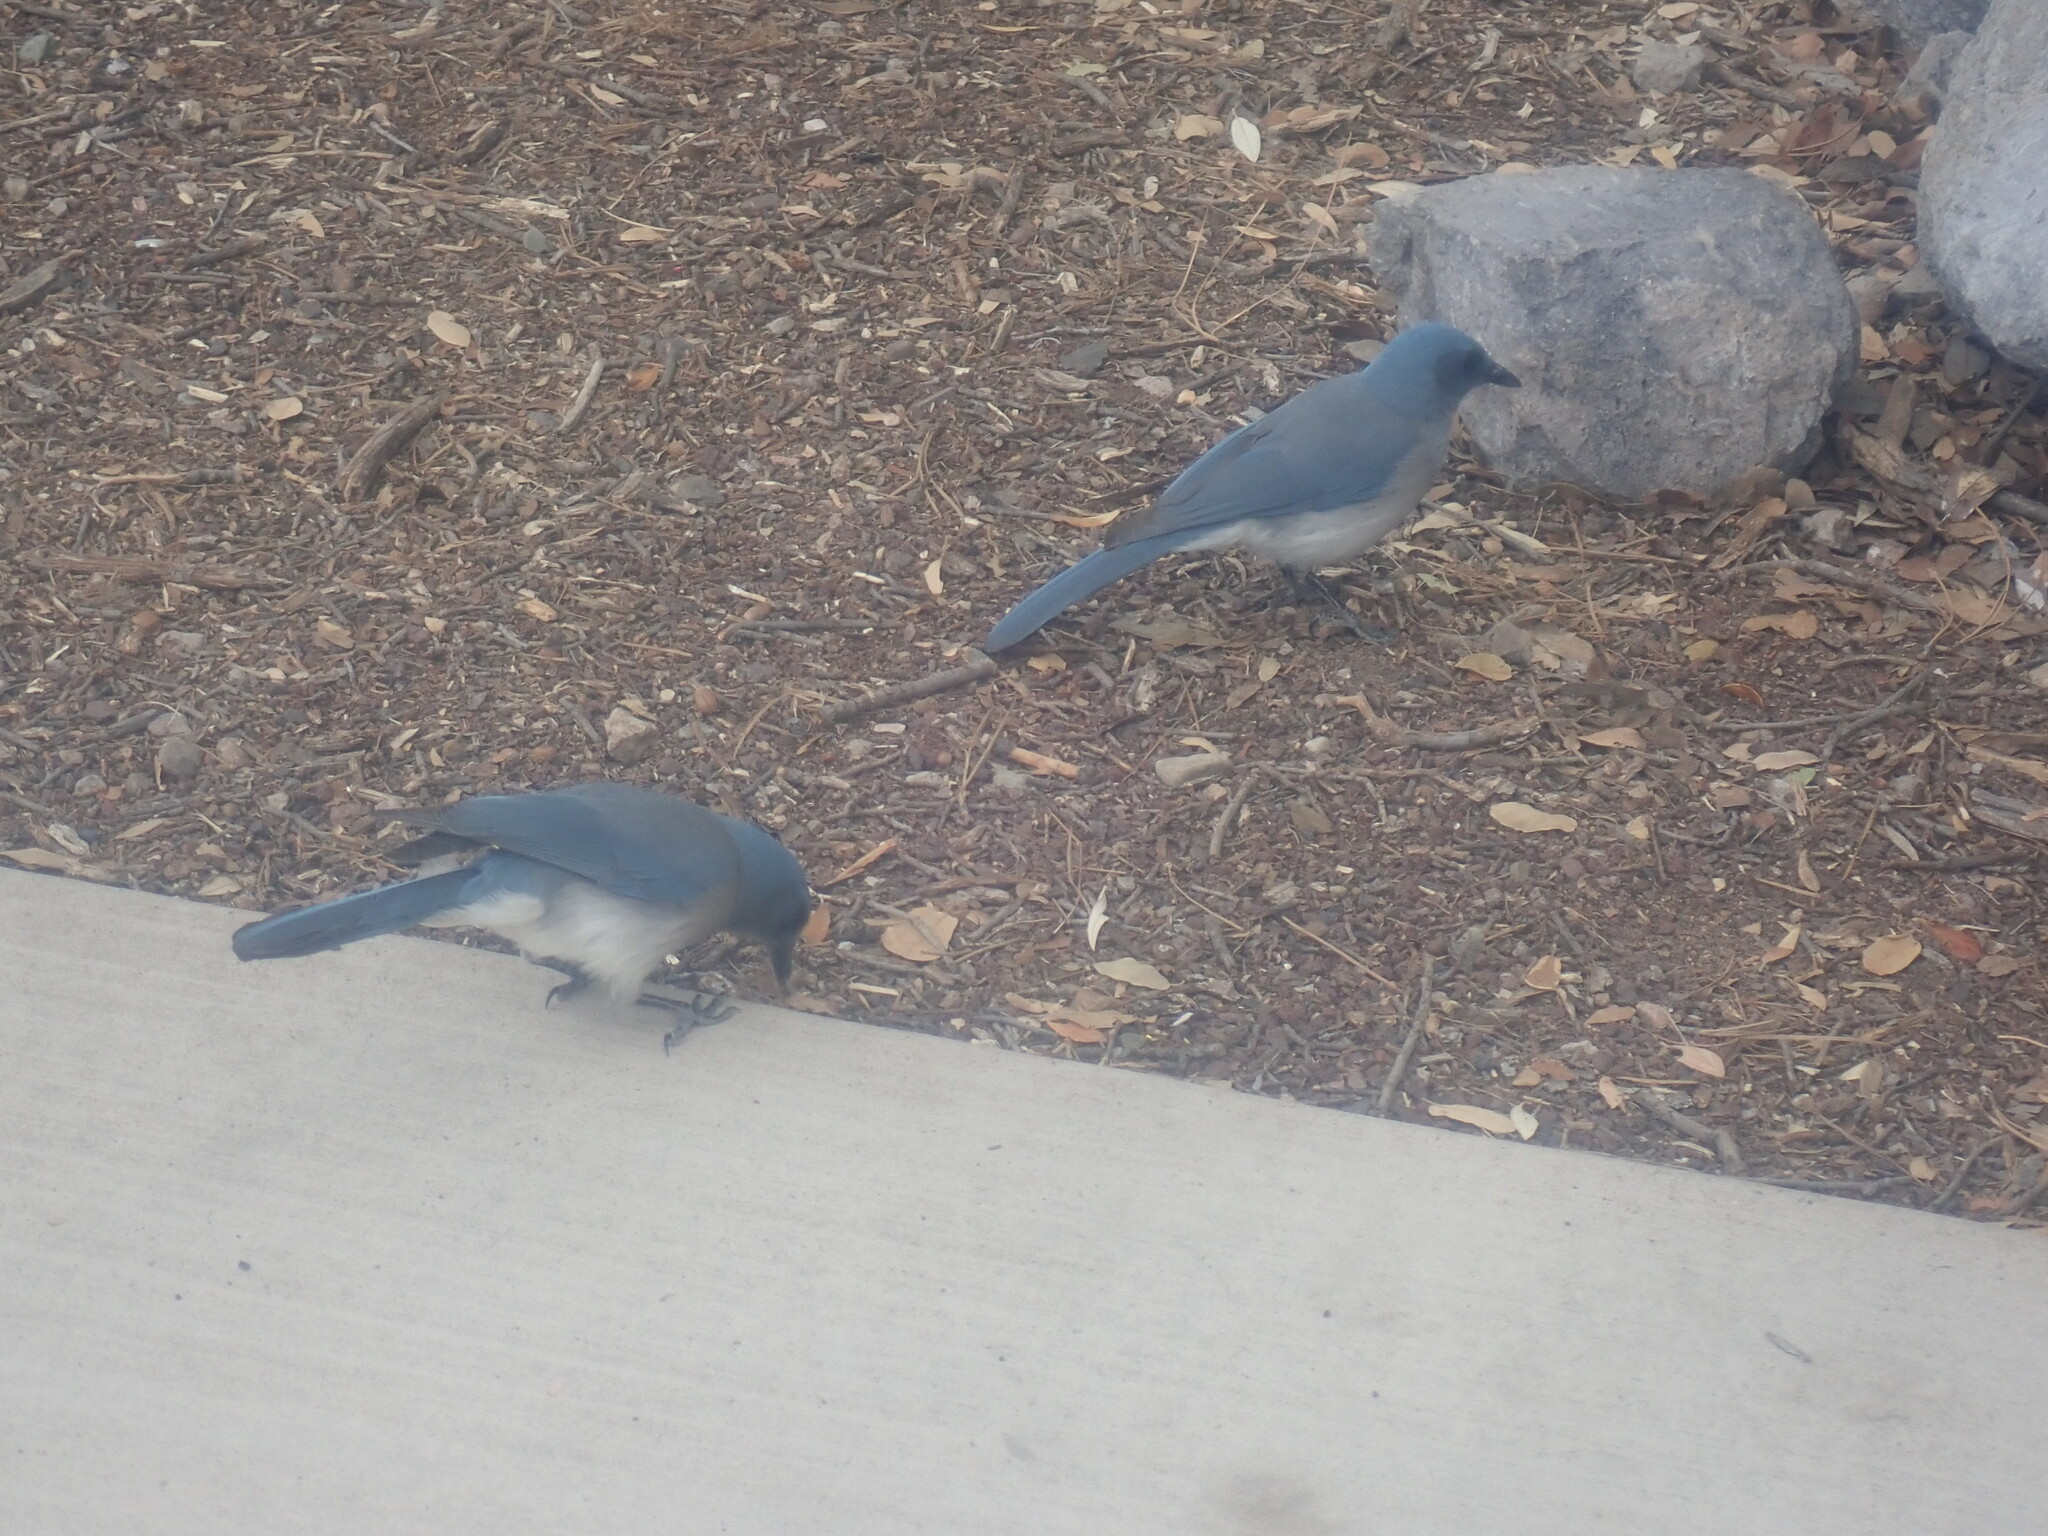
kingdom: Animalia
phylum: Chordata
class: Aves
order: Passeriformes
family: Corvidae
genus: Aphelocoma
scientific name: Aphelocoma wollweberi
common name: Mexican jay
